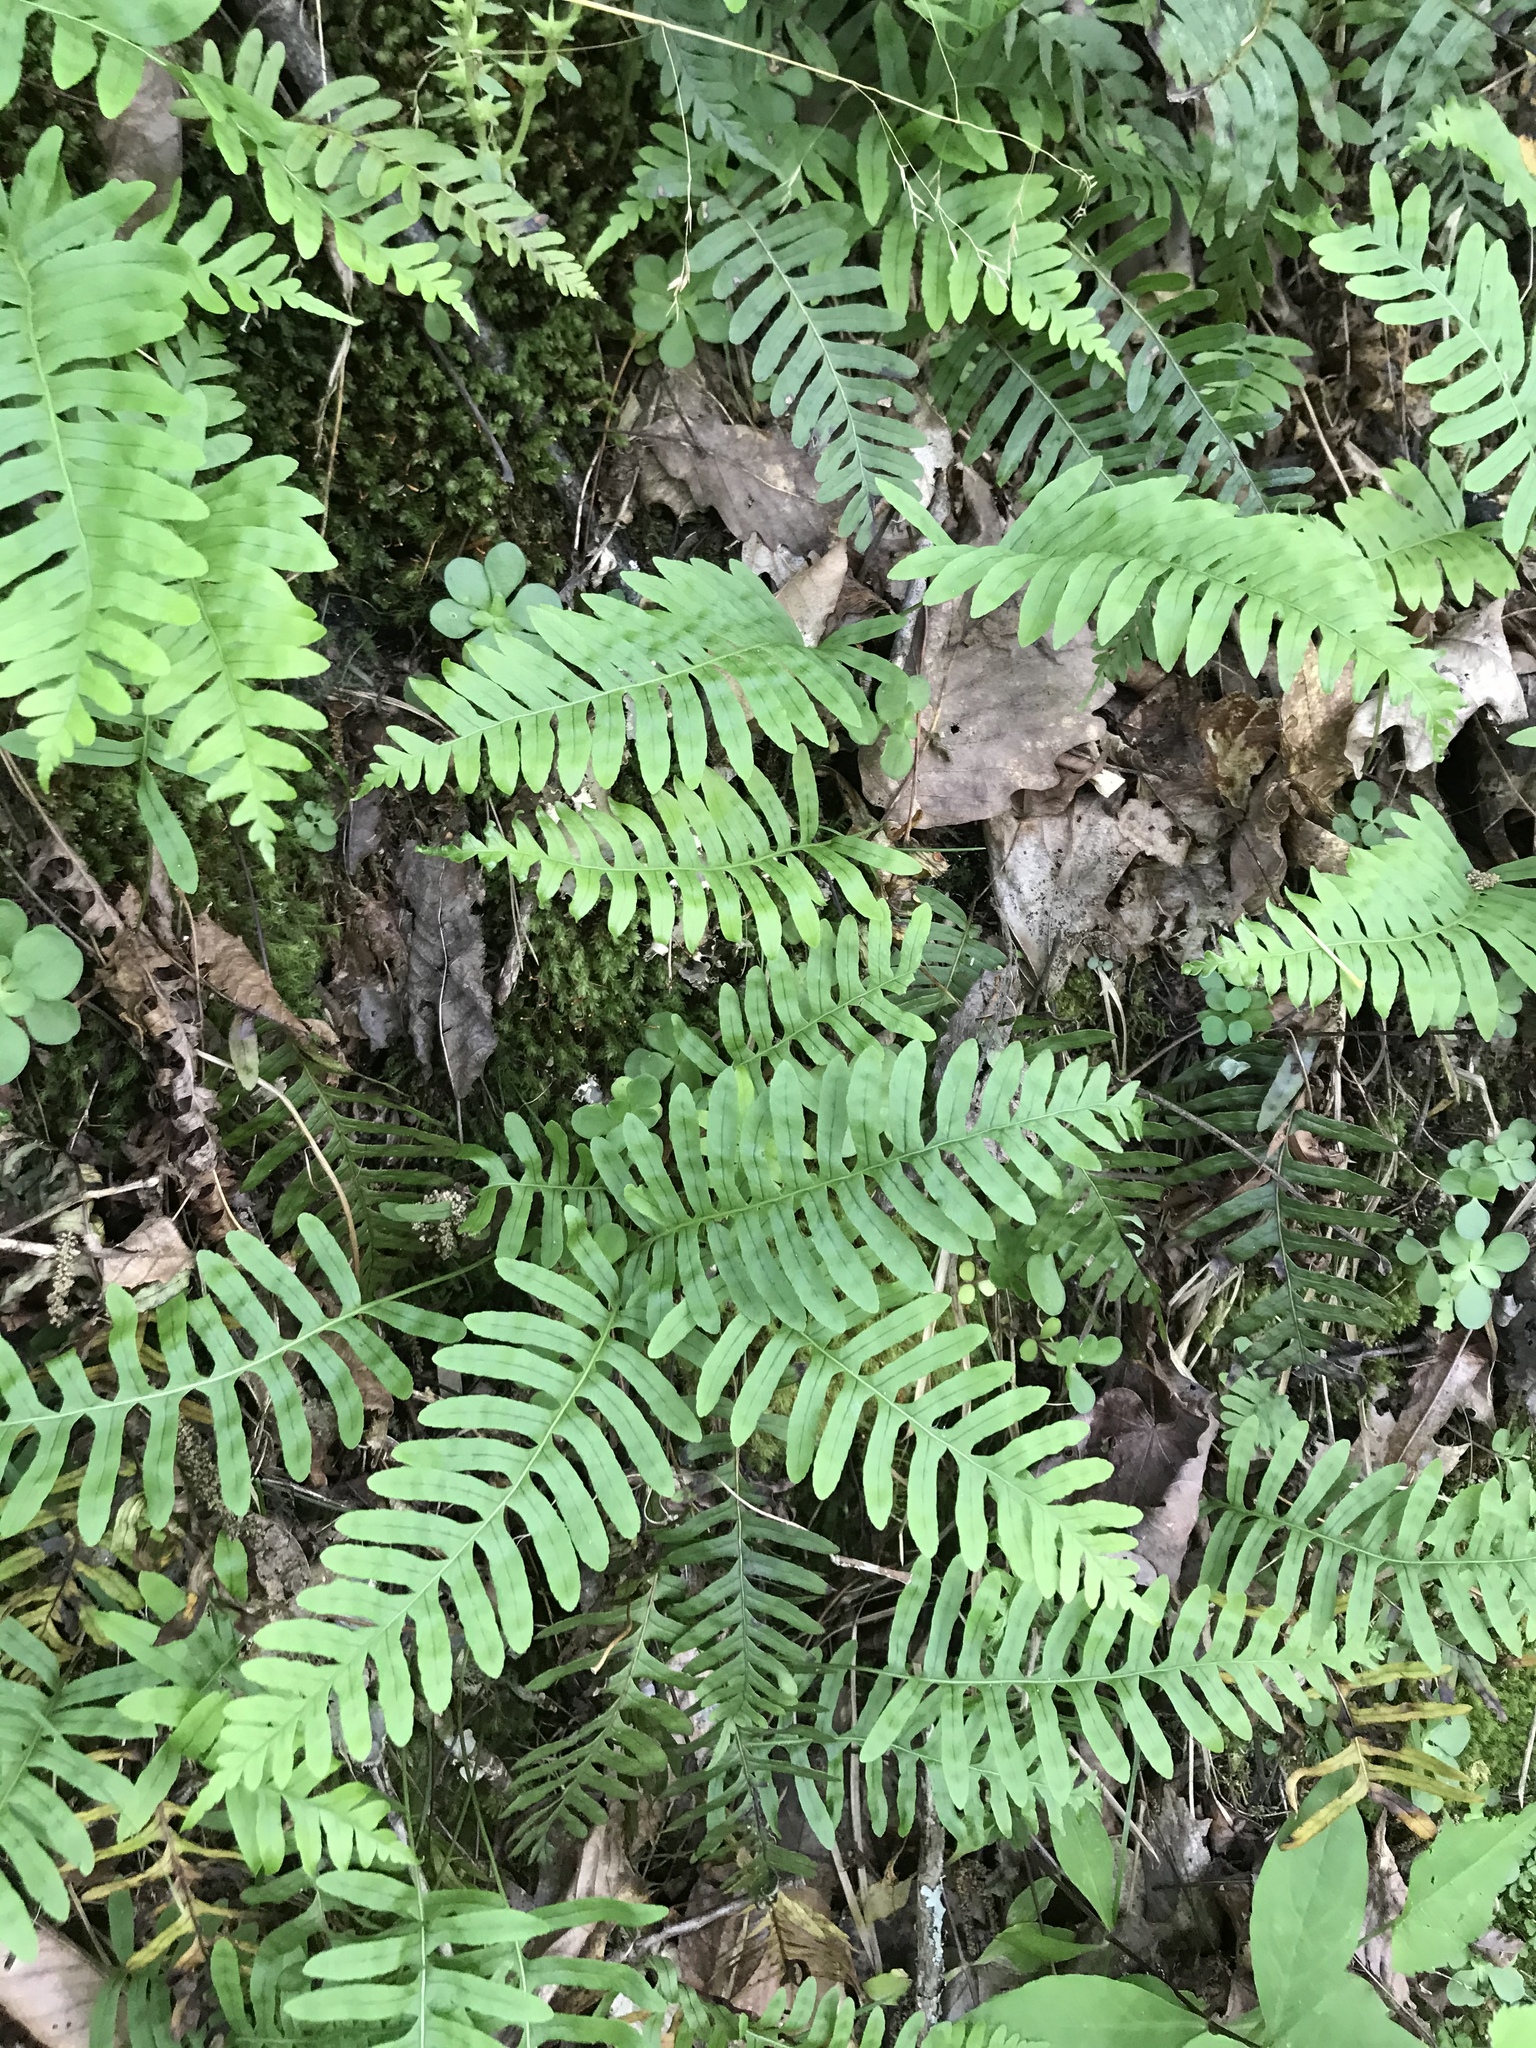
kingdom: Plantae
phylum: Tracheophyta
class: Polypodiopsida
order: Polypodiales
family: Polypodiaceae
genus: Polypodium
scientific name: Polypodium appalachianum
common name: Appalachian polypody
